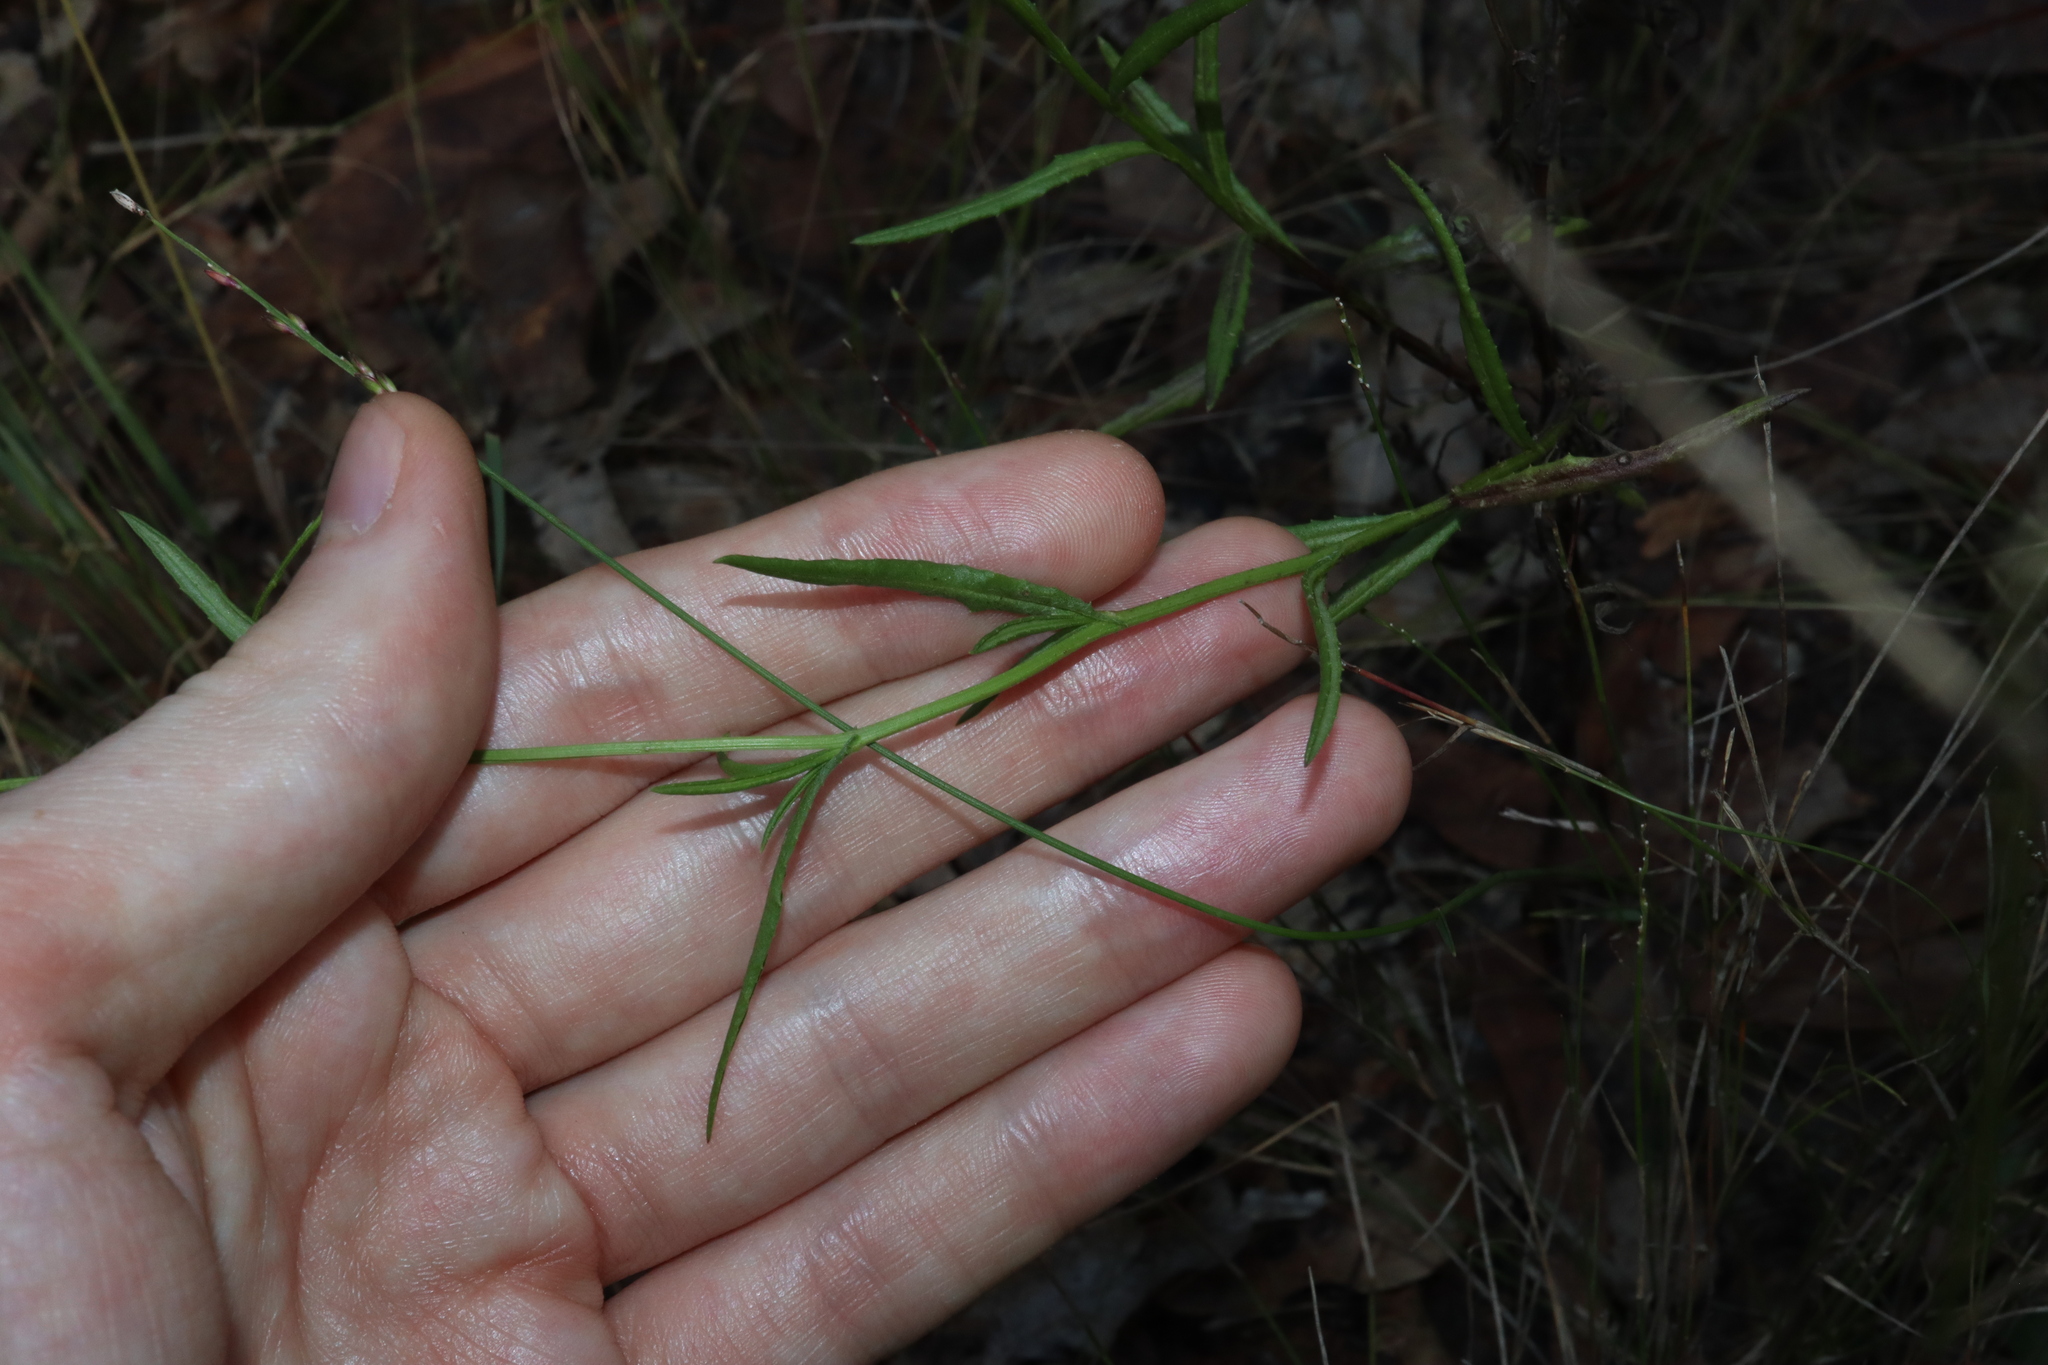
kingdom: Plantae
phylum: Tracheophyta
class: Magnoliopsida
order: Asterales
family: Asteraceae
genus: Senecio
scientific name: Senecio madagascariensis
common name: Madagascar ragwort
